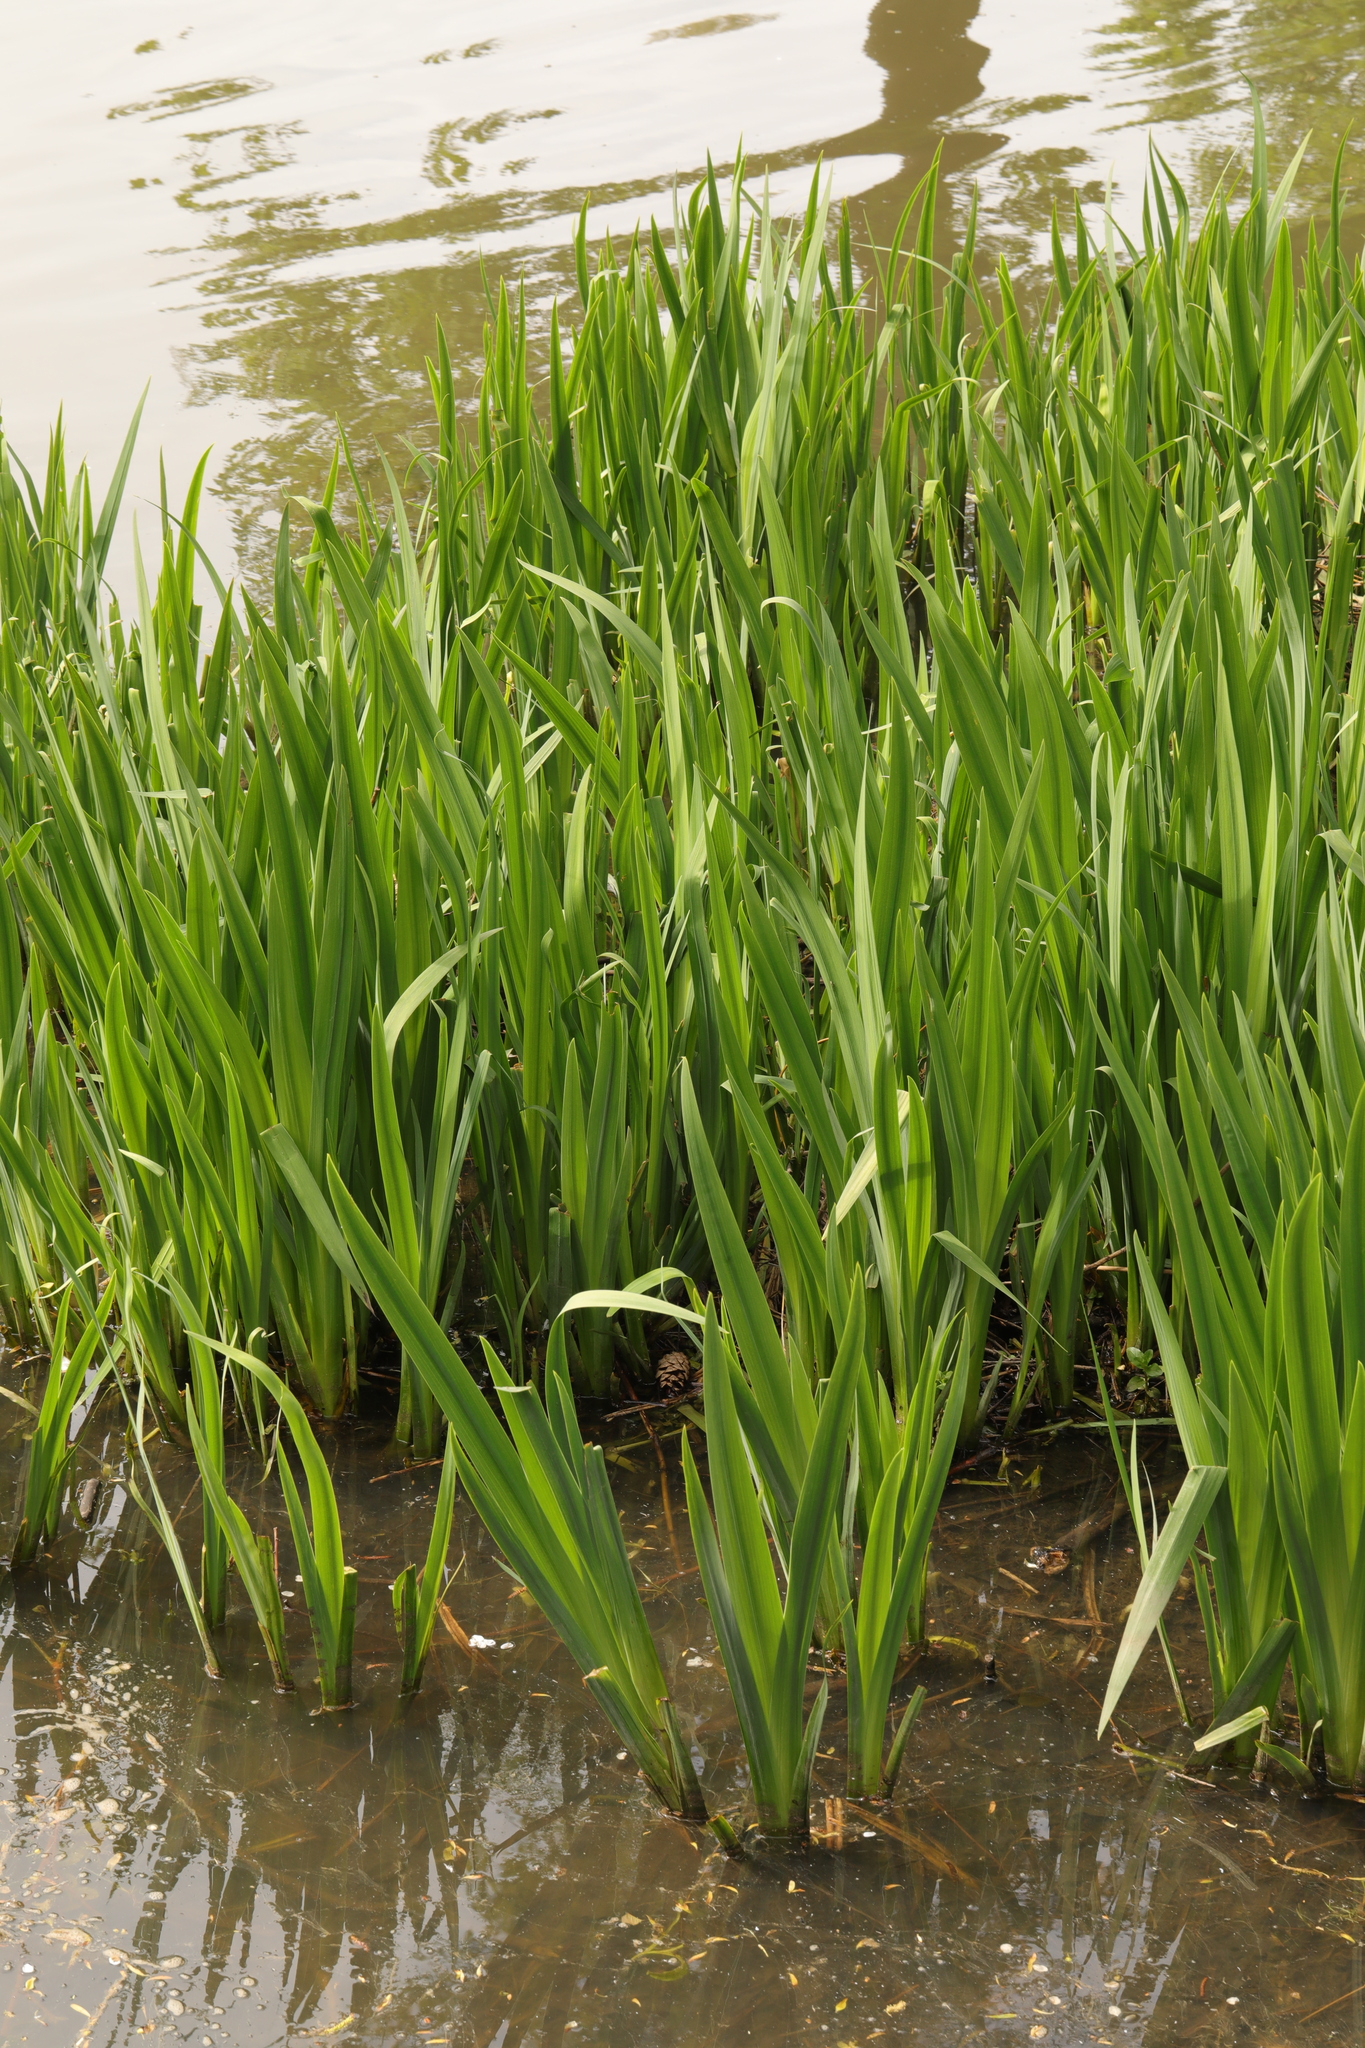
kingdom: Plantae
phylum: Tracheophyta
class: Liliopsida
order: Asparagales
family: Iridaceae
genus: Iris
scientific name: Iris pseudacorus
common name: Yellow flag
